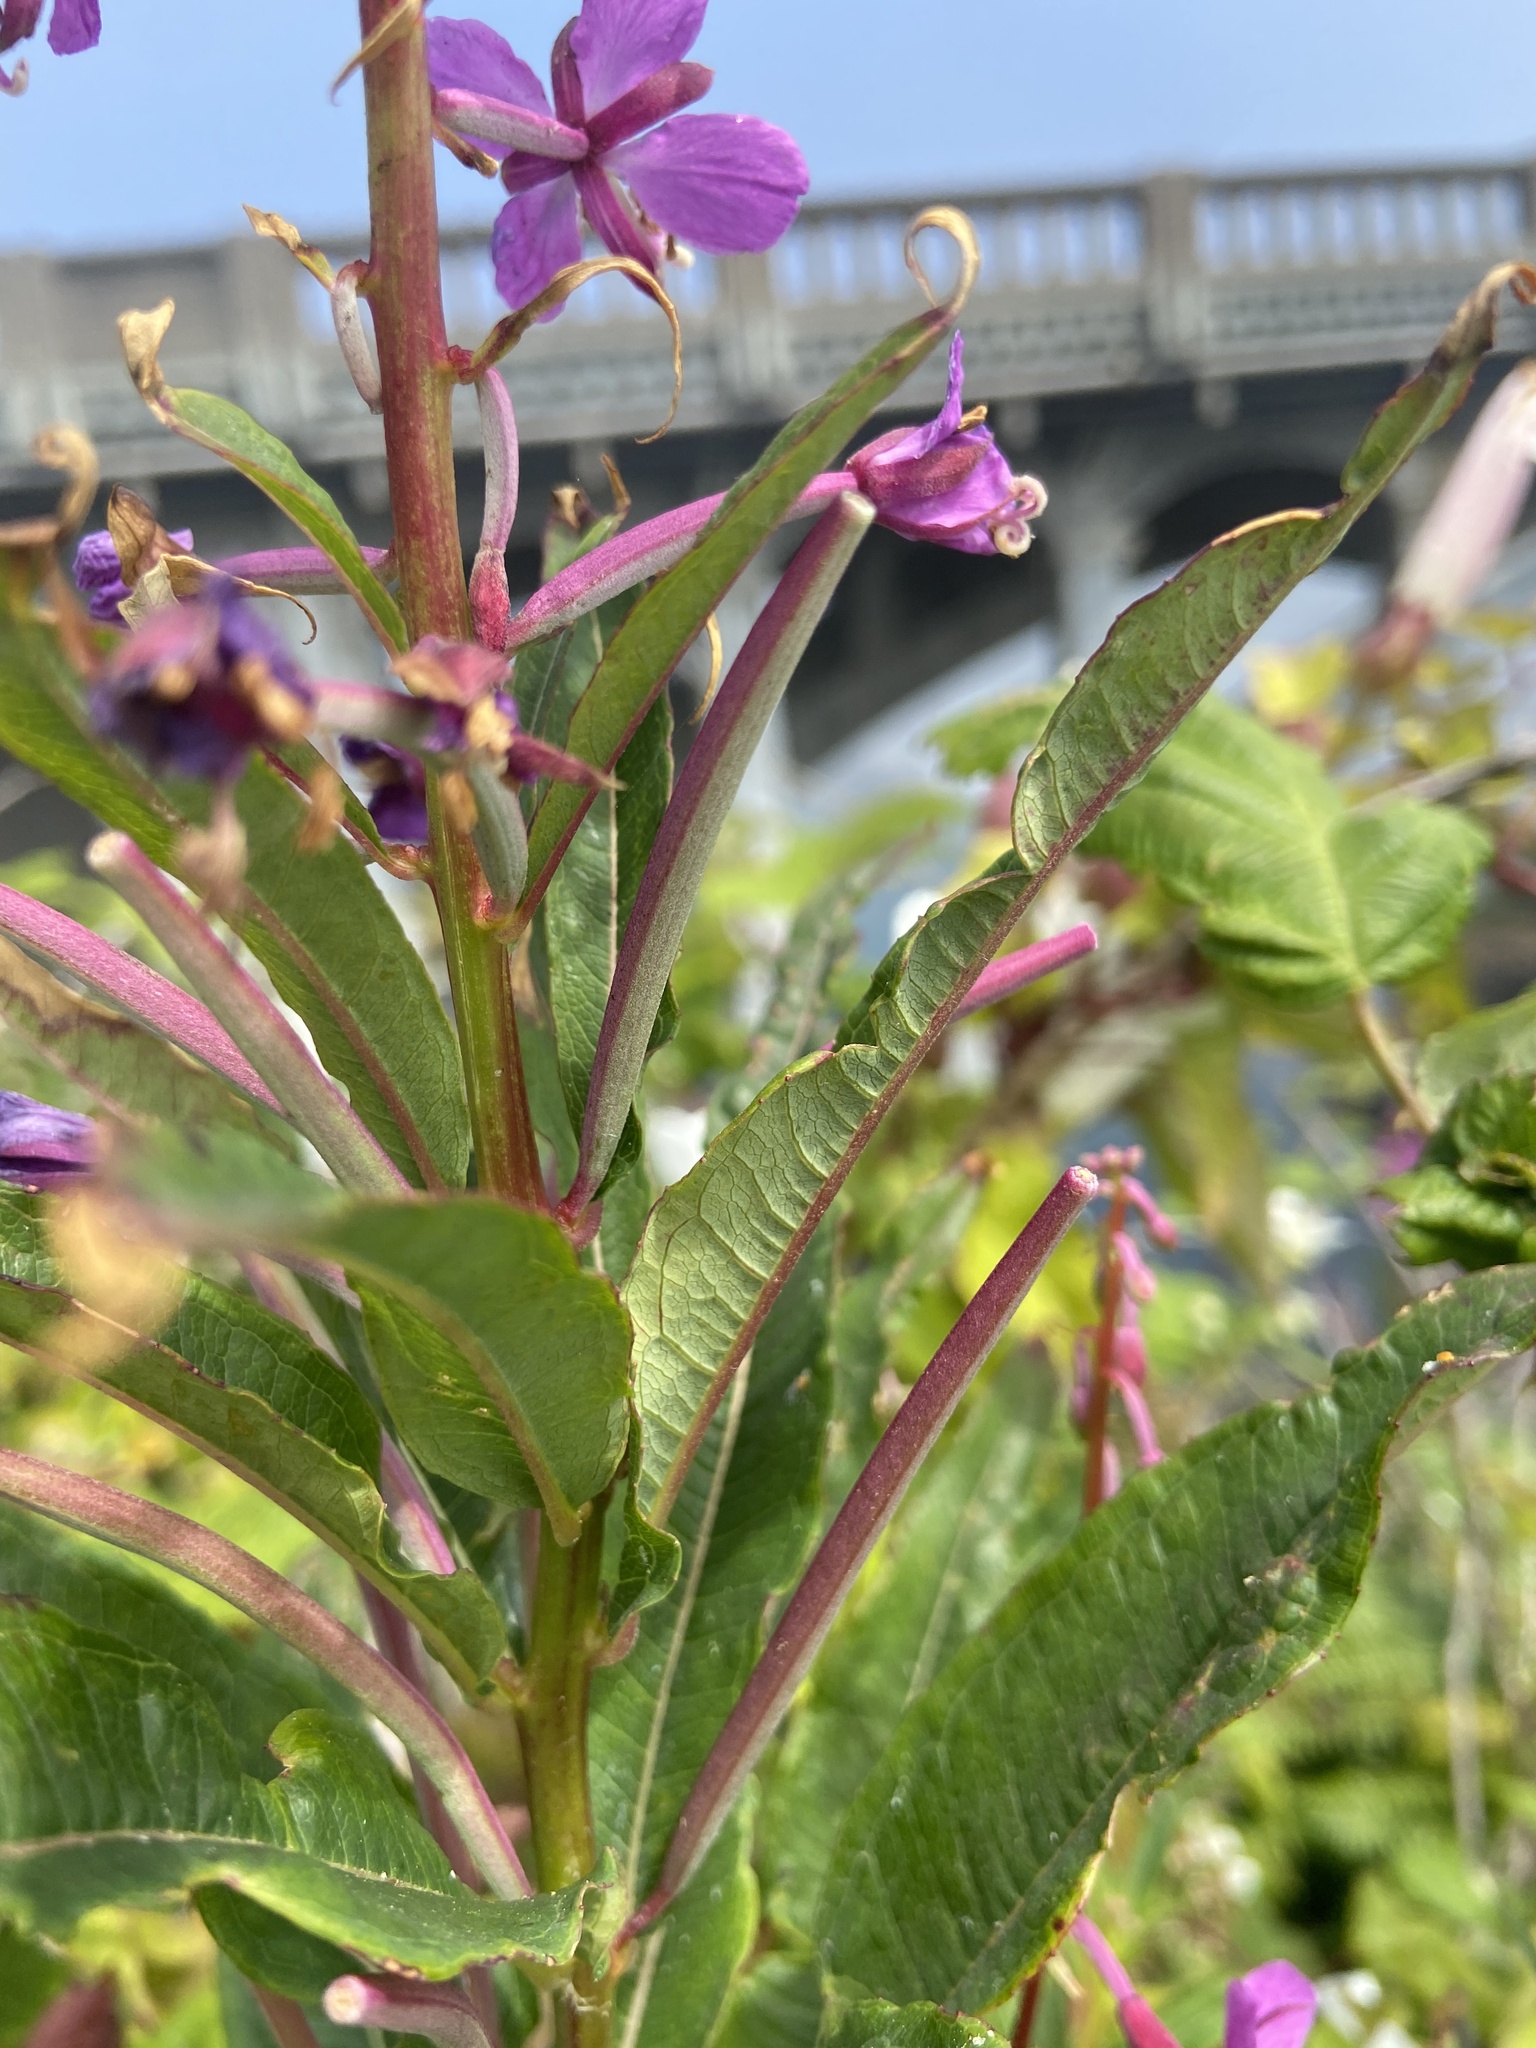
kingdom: Plantae
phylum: Tracheophyta
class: Magnoliopsida
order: Myrtales
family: Onagraceae
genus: Chamaenerion
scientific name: Chamaenerion angustifolium
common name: Fireweed
